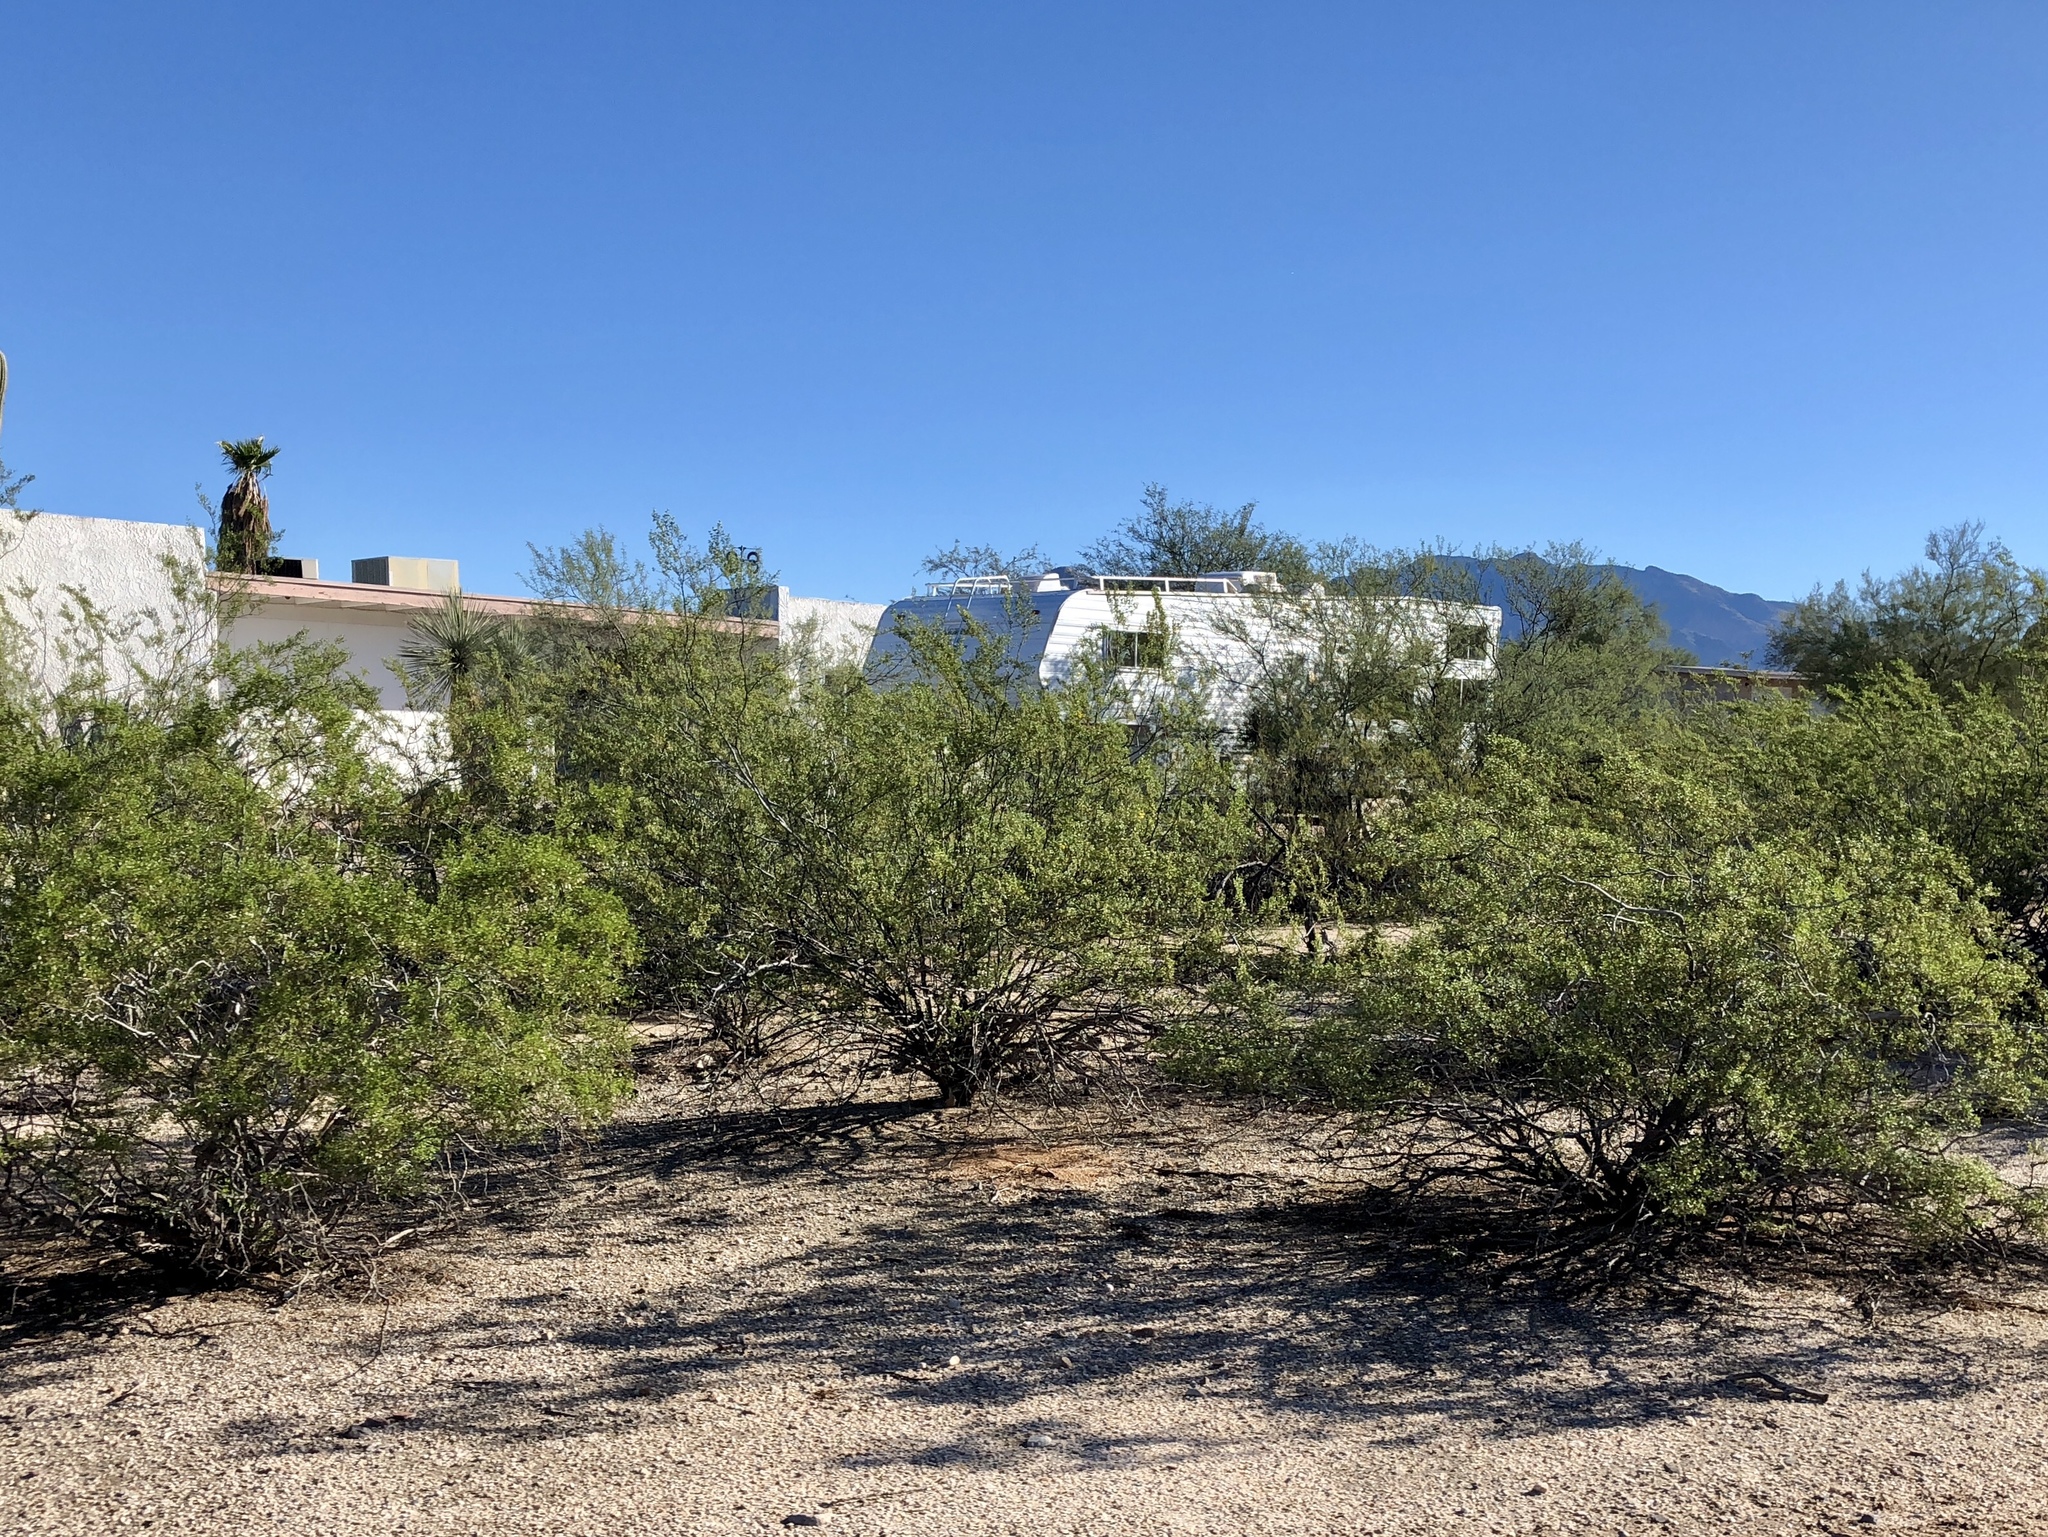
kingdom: Plantae
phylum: Tracheophyta
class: Magnoliopsida
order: Zygophyllales
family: Zygophyllaceae
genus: Larrea
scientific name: Larrea tridentata
